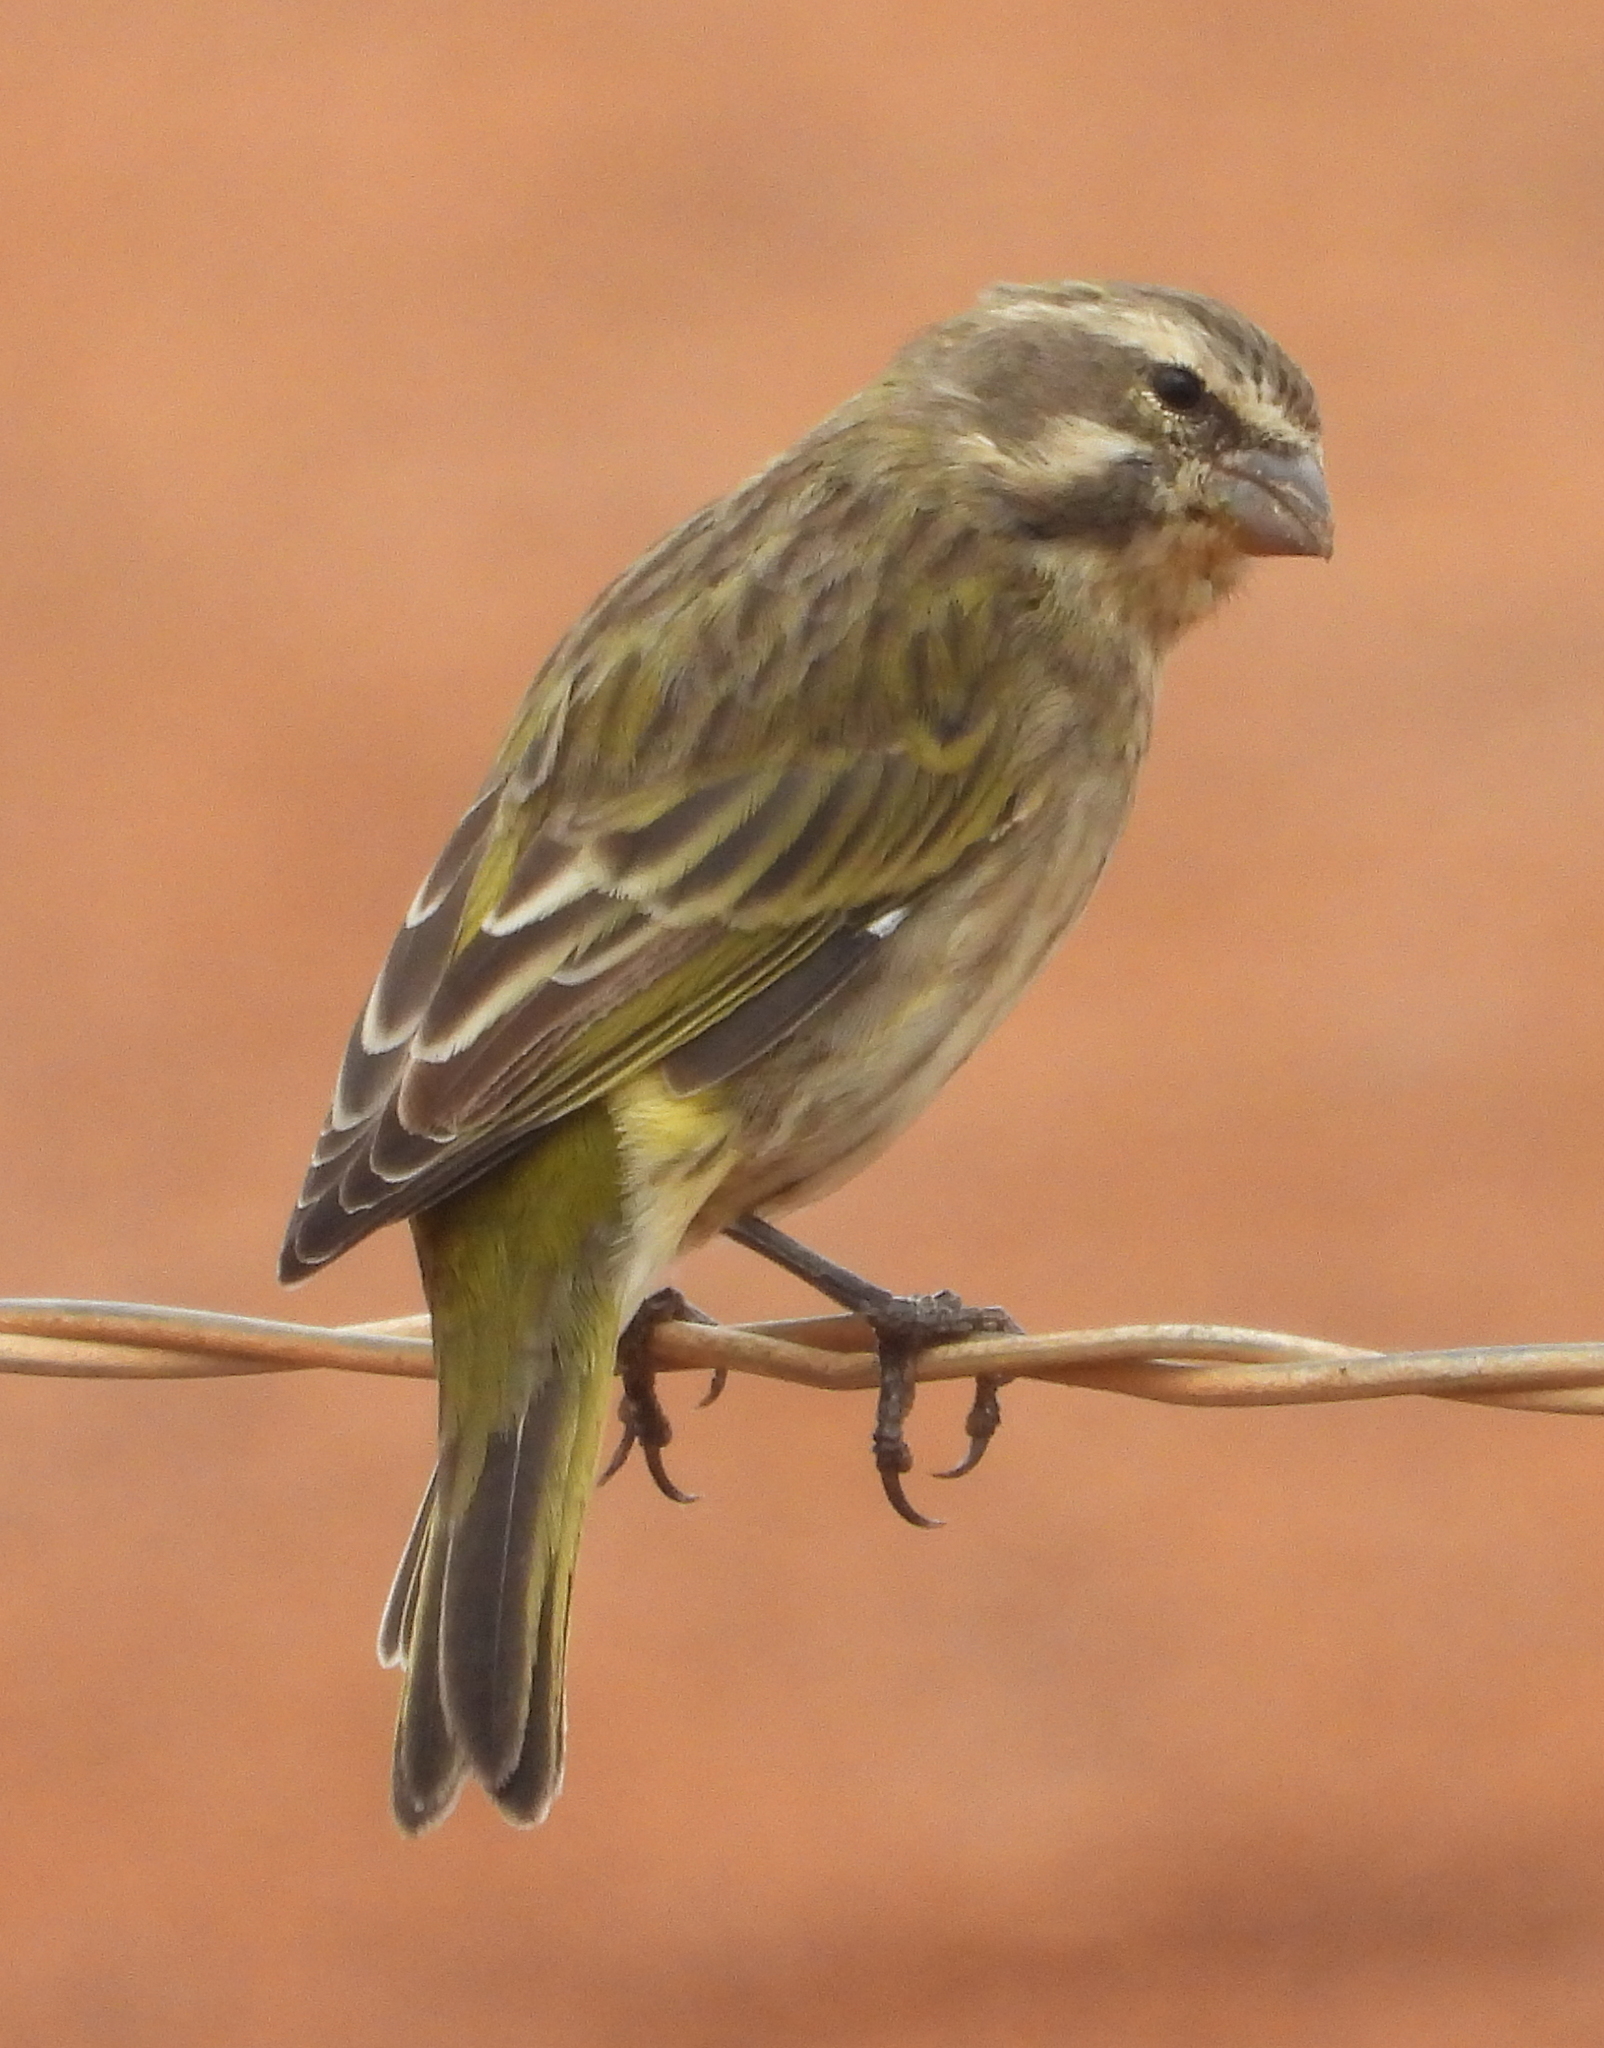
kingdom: Animalia
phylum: Chordata
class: Aves
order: Passeriformes
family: Fringillidae
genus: Crithagra
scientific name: Crithagra flaviventris
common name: Yellow canary
